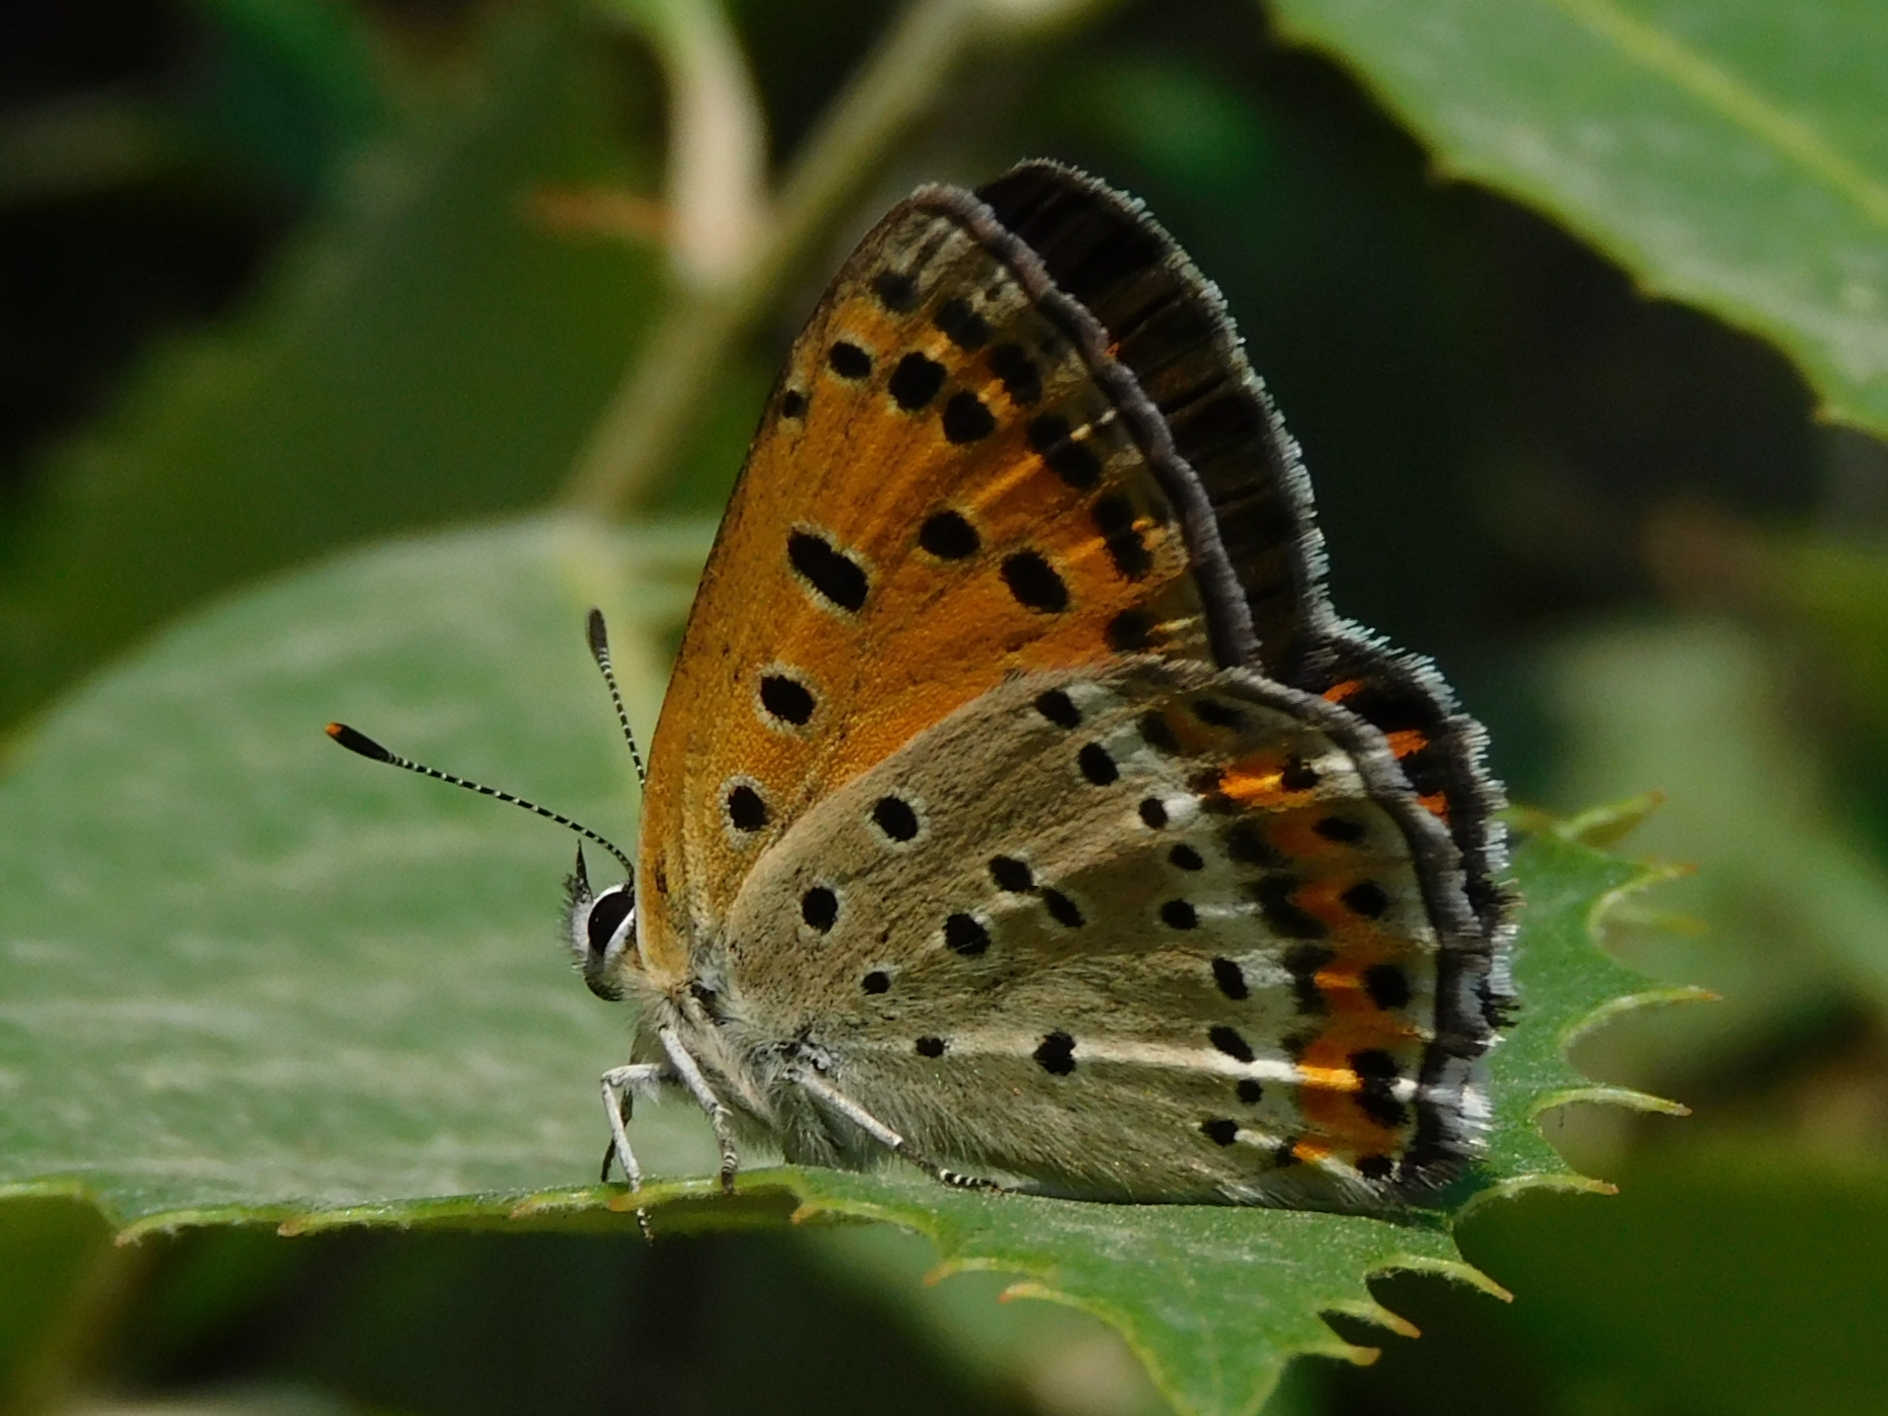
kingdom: Animalia
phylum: Arthropoda
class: Insecta
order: Lepidoptera
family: Lycaenidae
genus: Lycaena
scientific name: Lycaena panava
